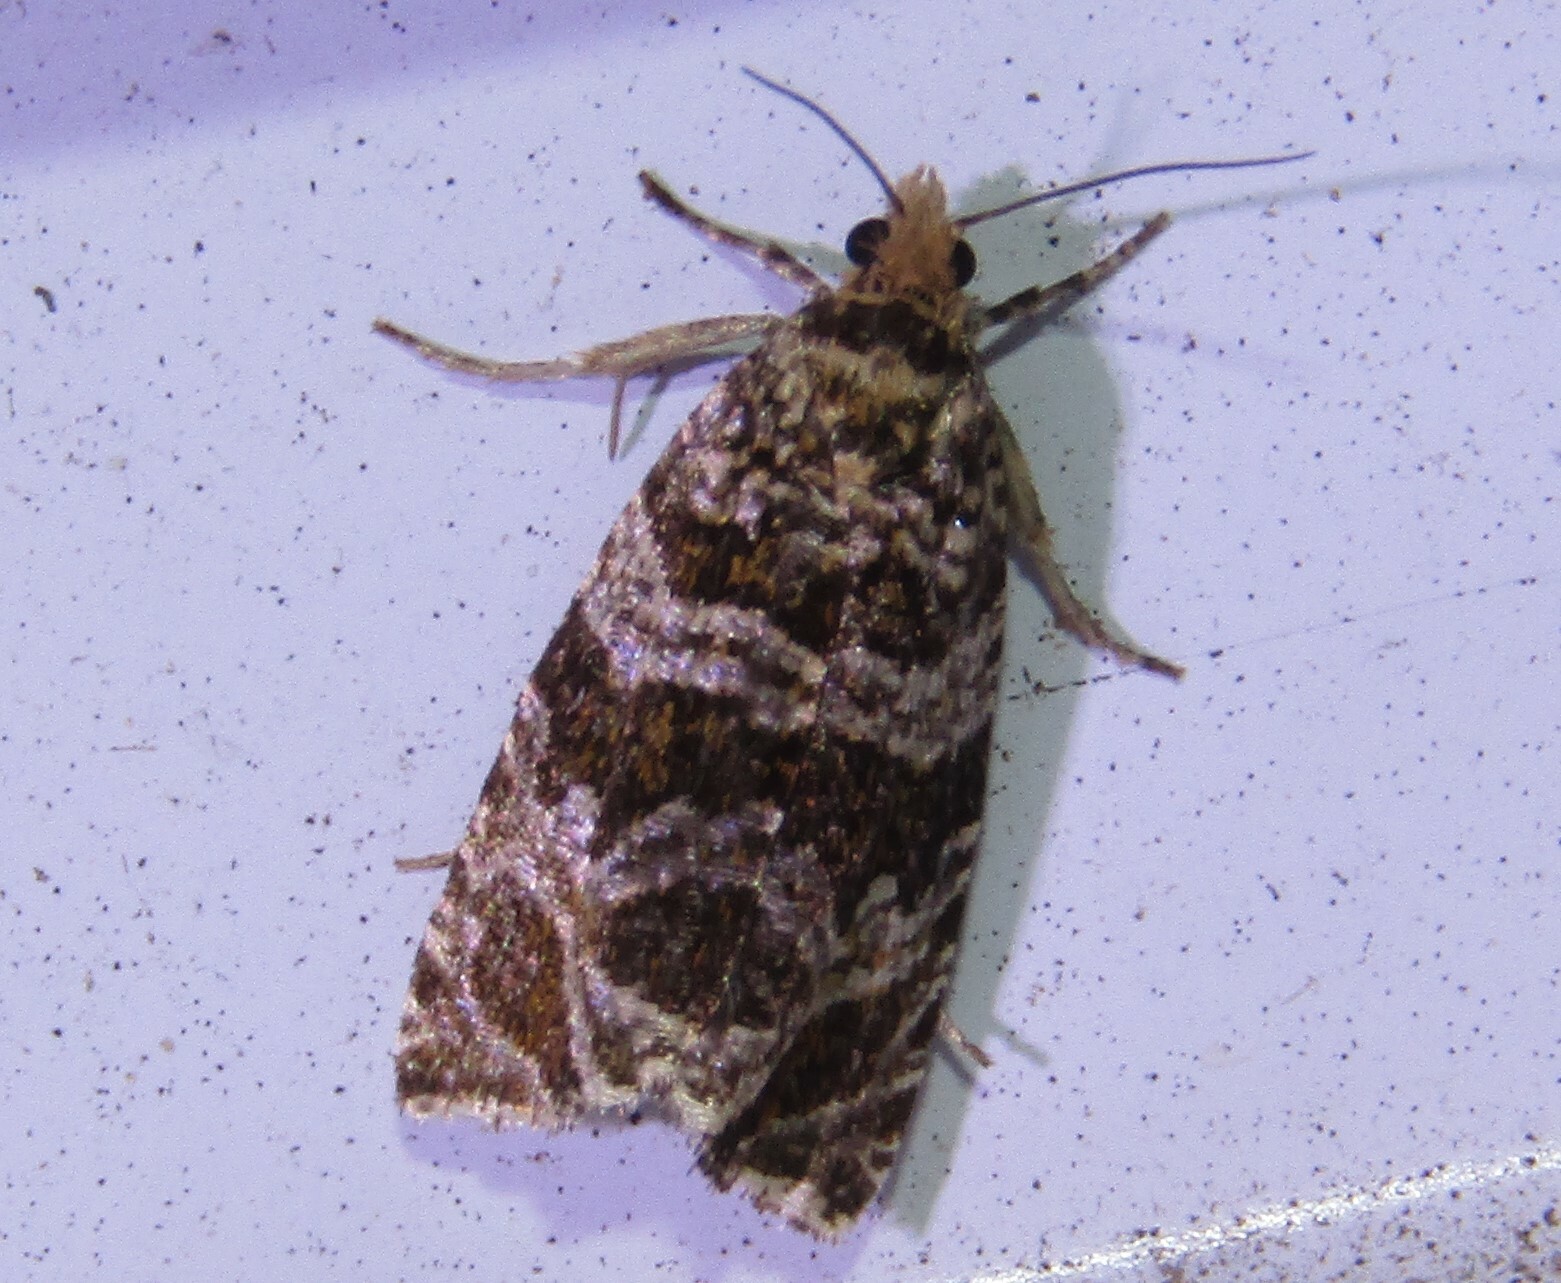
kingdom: Animalia
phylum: Arthropoda
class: Insecta
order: Lepidoptera
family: Tortricidae
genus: Syricoris
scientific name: Syricoris rivulana
